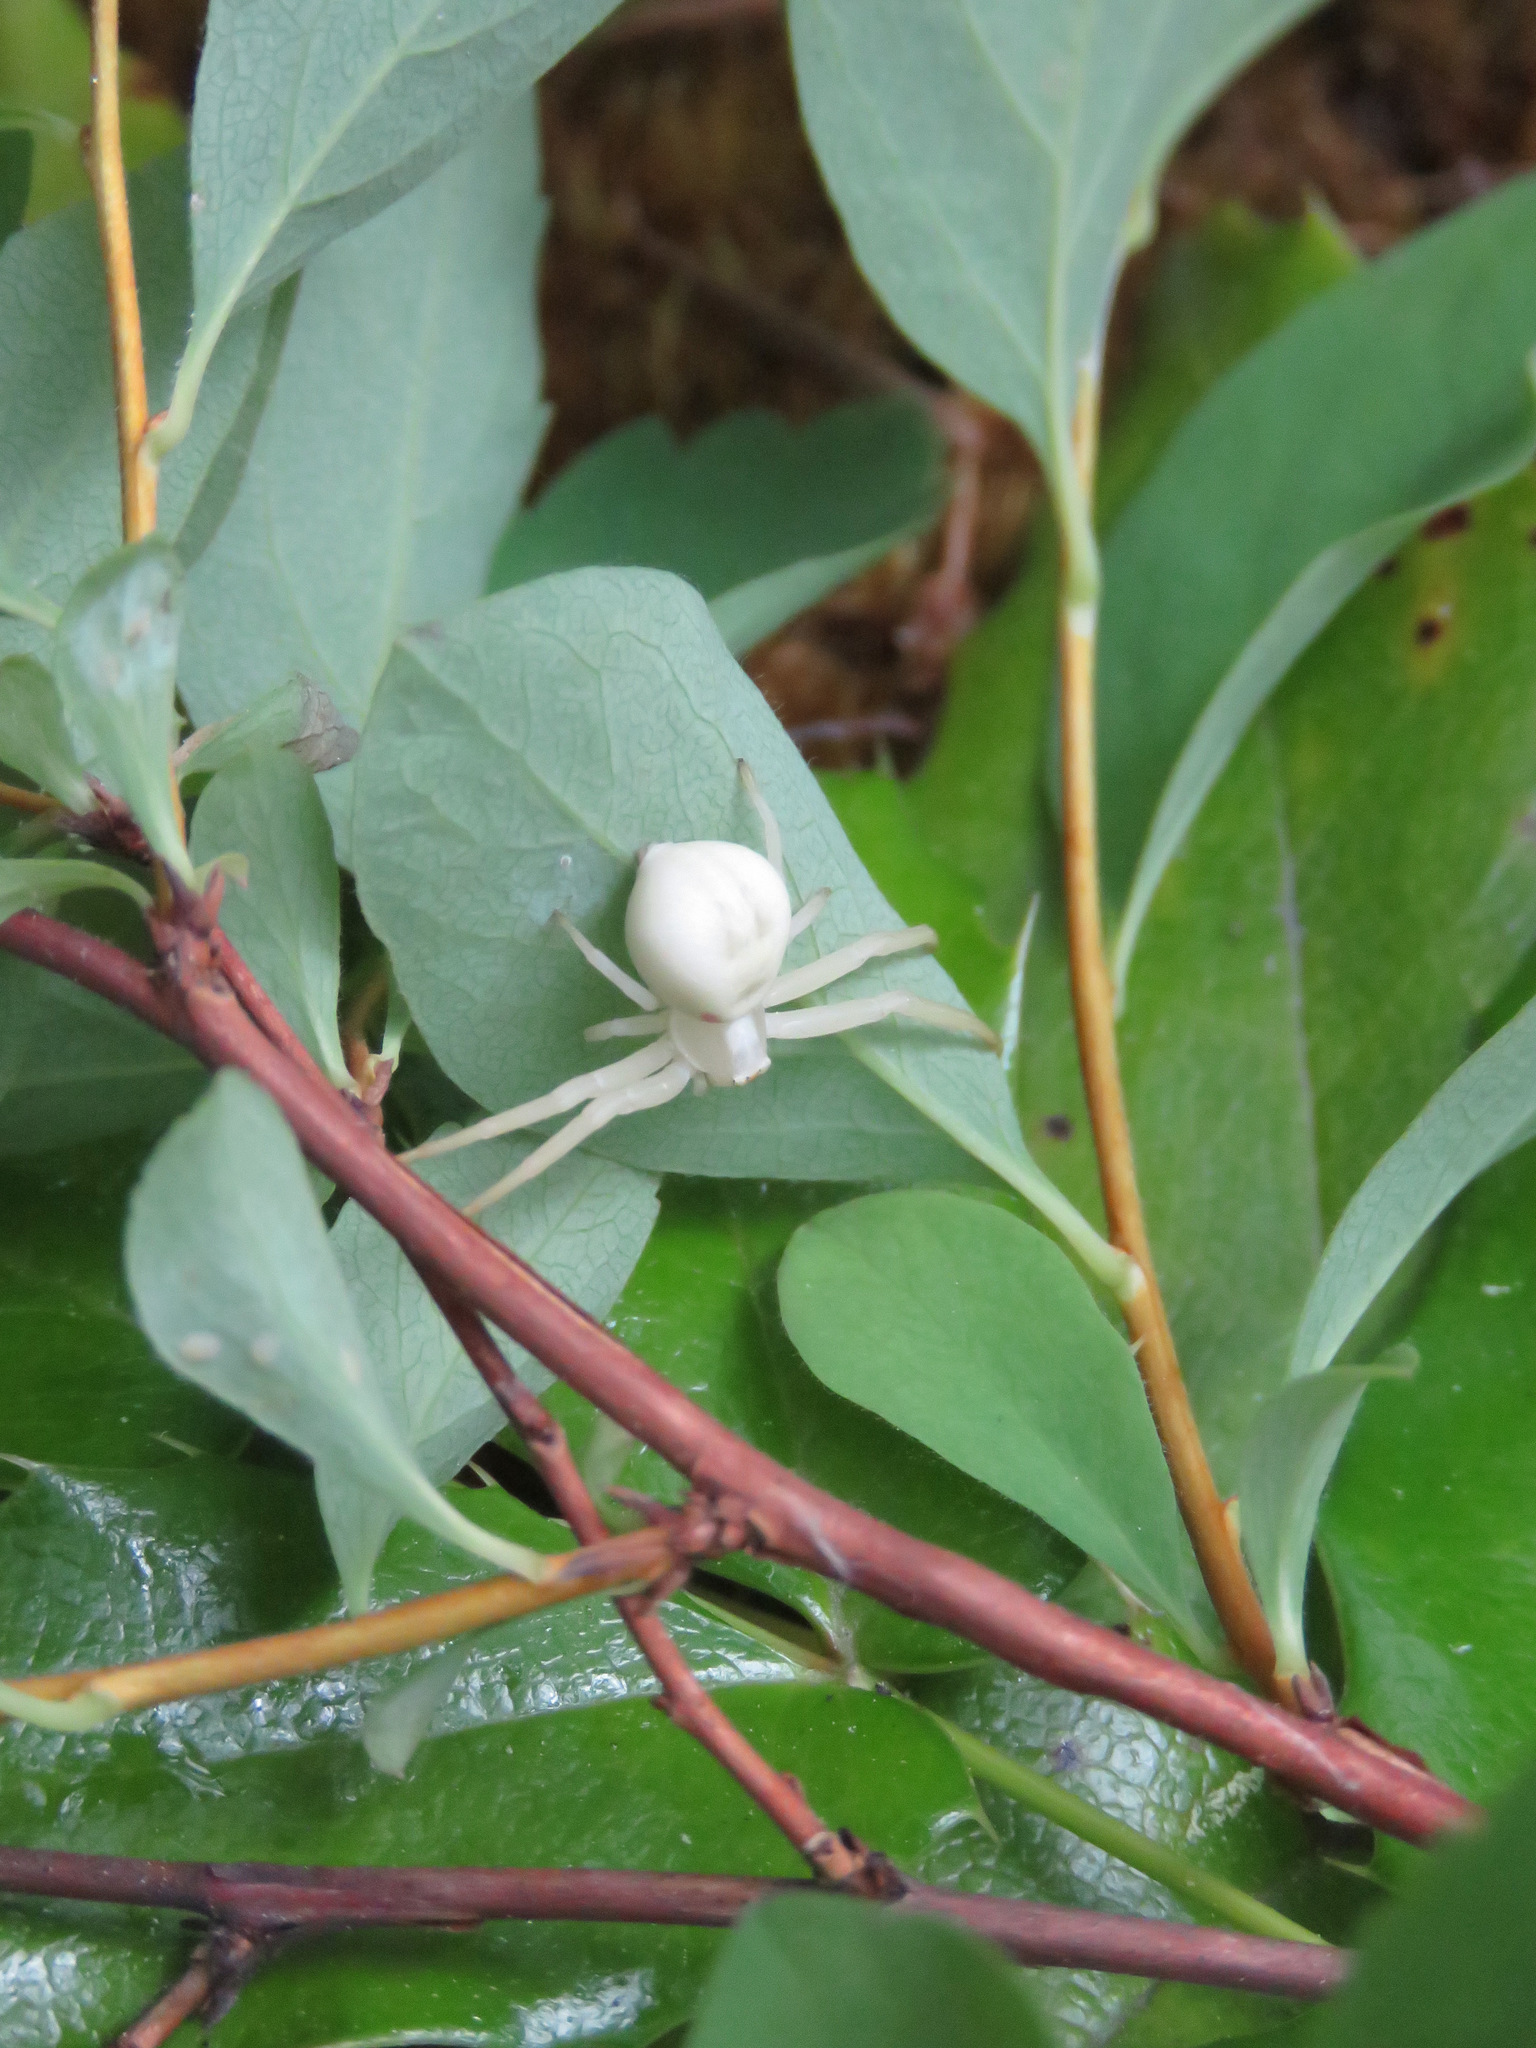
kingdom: Animalia
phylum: Arthropoda
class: Arachnida
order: Araneae
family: Thomisidae
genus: Misumena
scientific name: Misumena vatia
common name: Goldenrod crab spider
